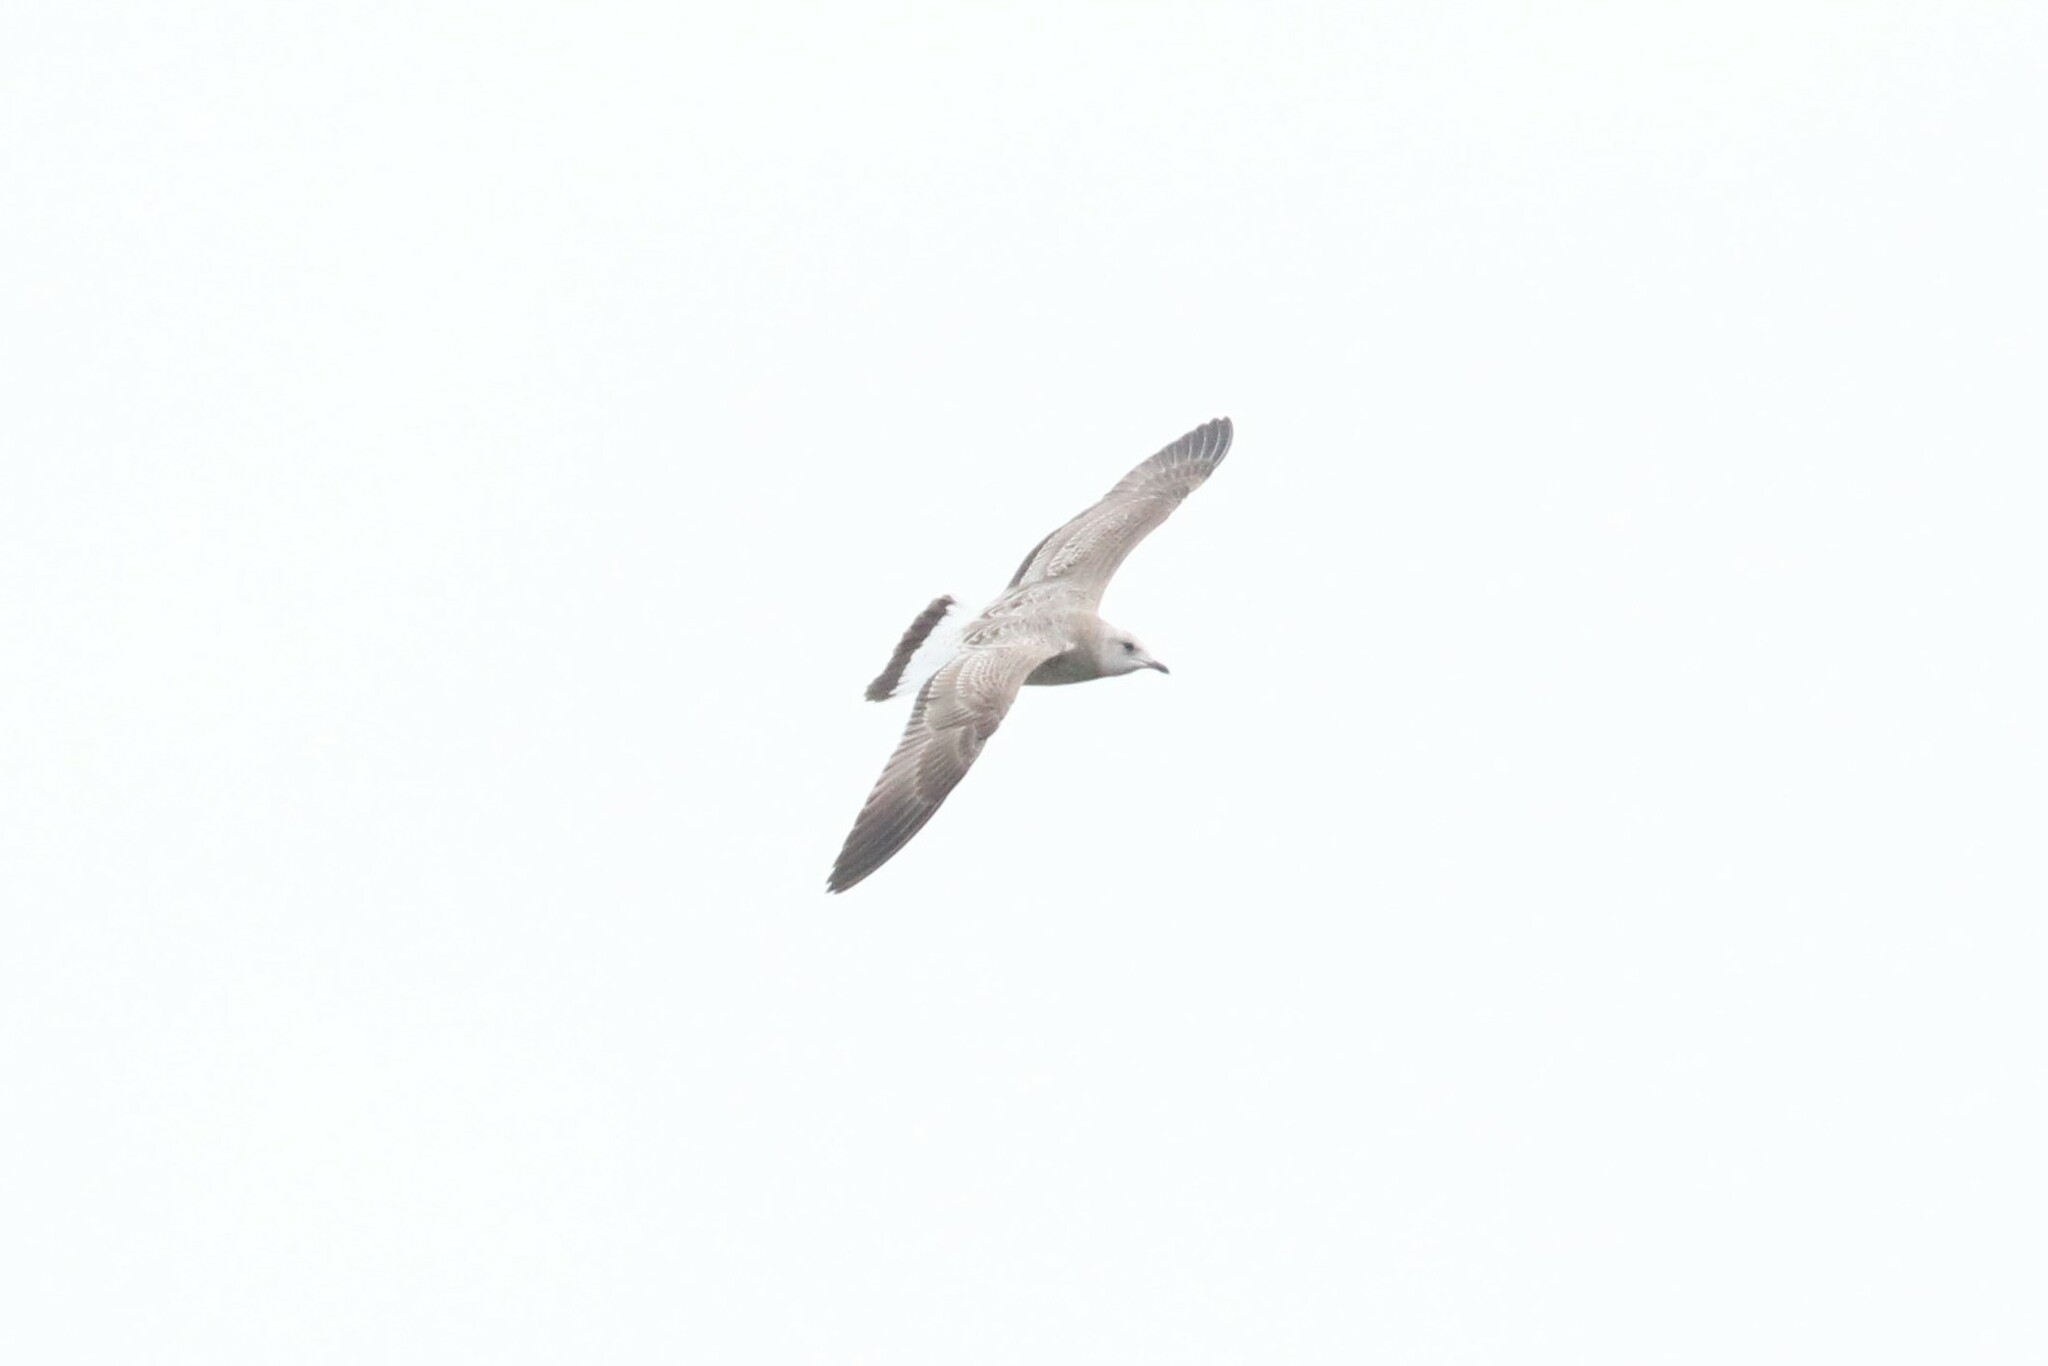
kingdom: Animalia
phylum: Chordata
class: Aves
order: Charadriiformes
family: Laridae
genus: Larus
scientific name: Larus canus
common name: Mew gull
